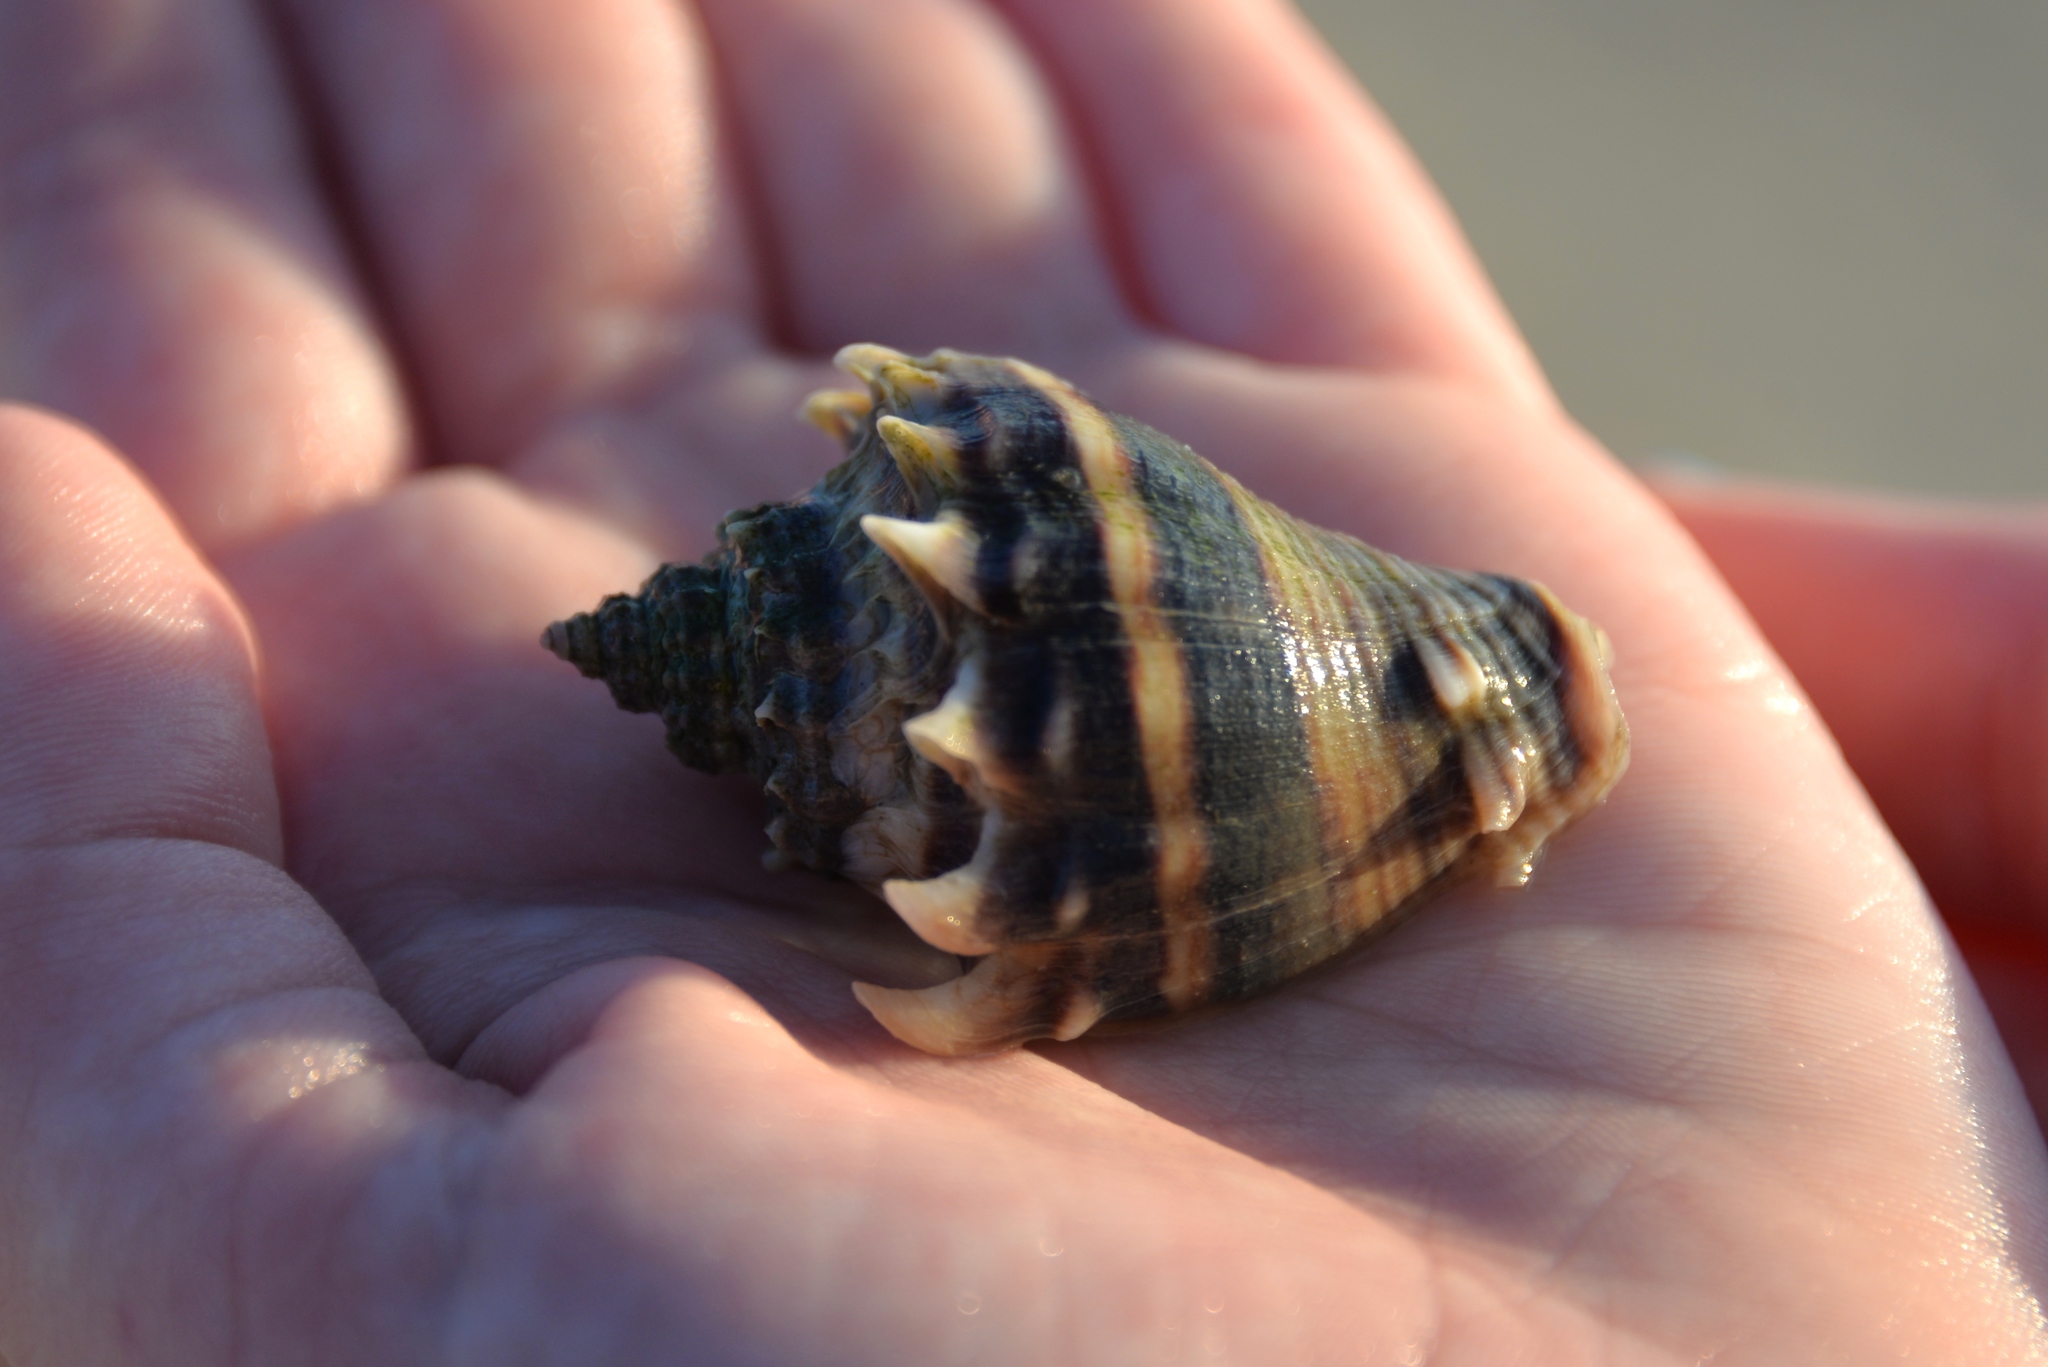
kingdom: Animalia
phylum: Mollusca
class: Gastropoda
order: Neogastropoda
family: Melongenidae
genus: Melongena
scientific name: Melongena corona
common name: American crown conch
